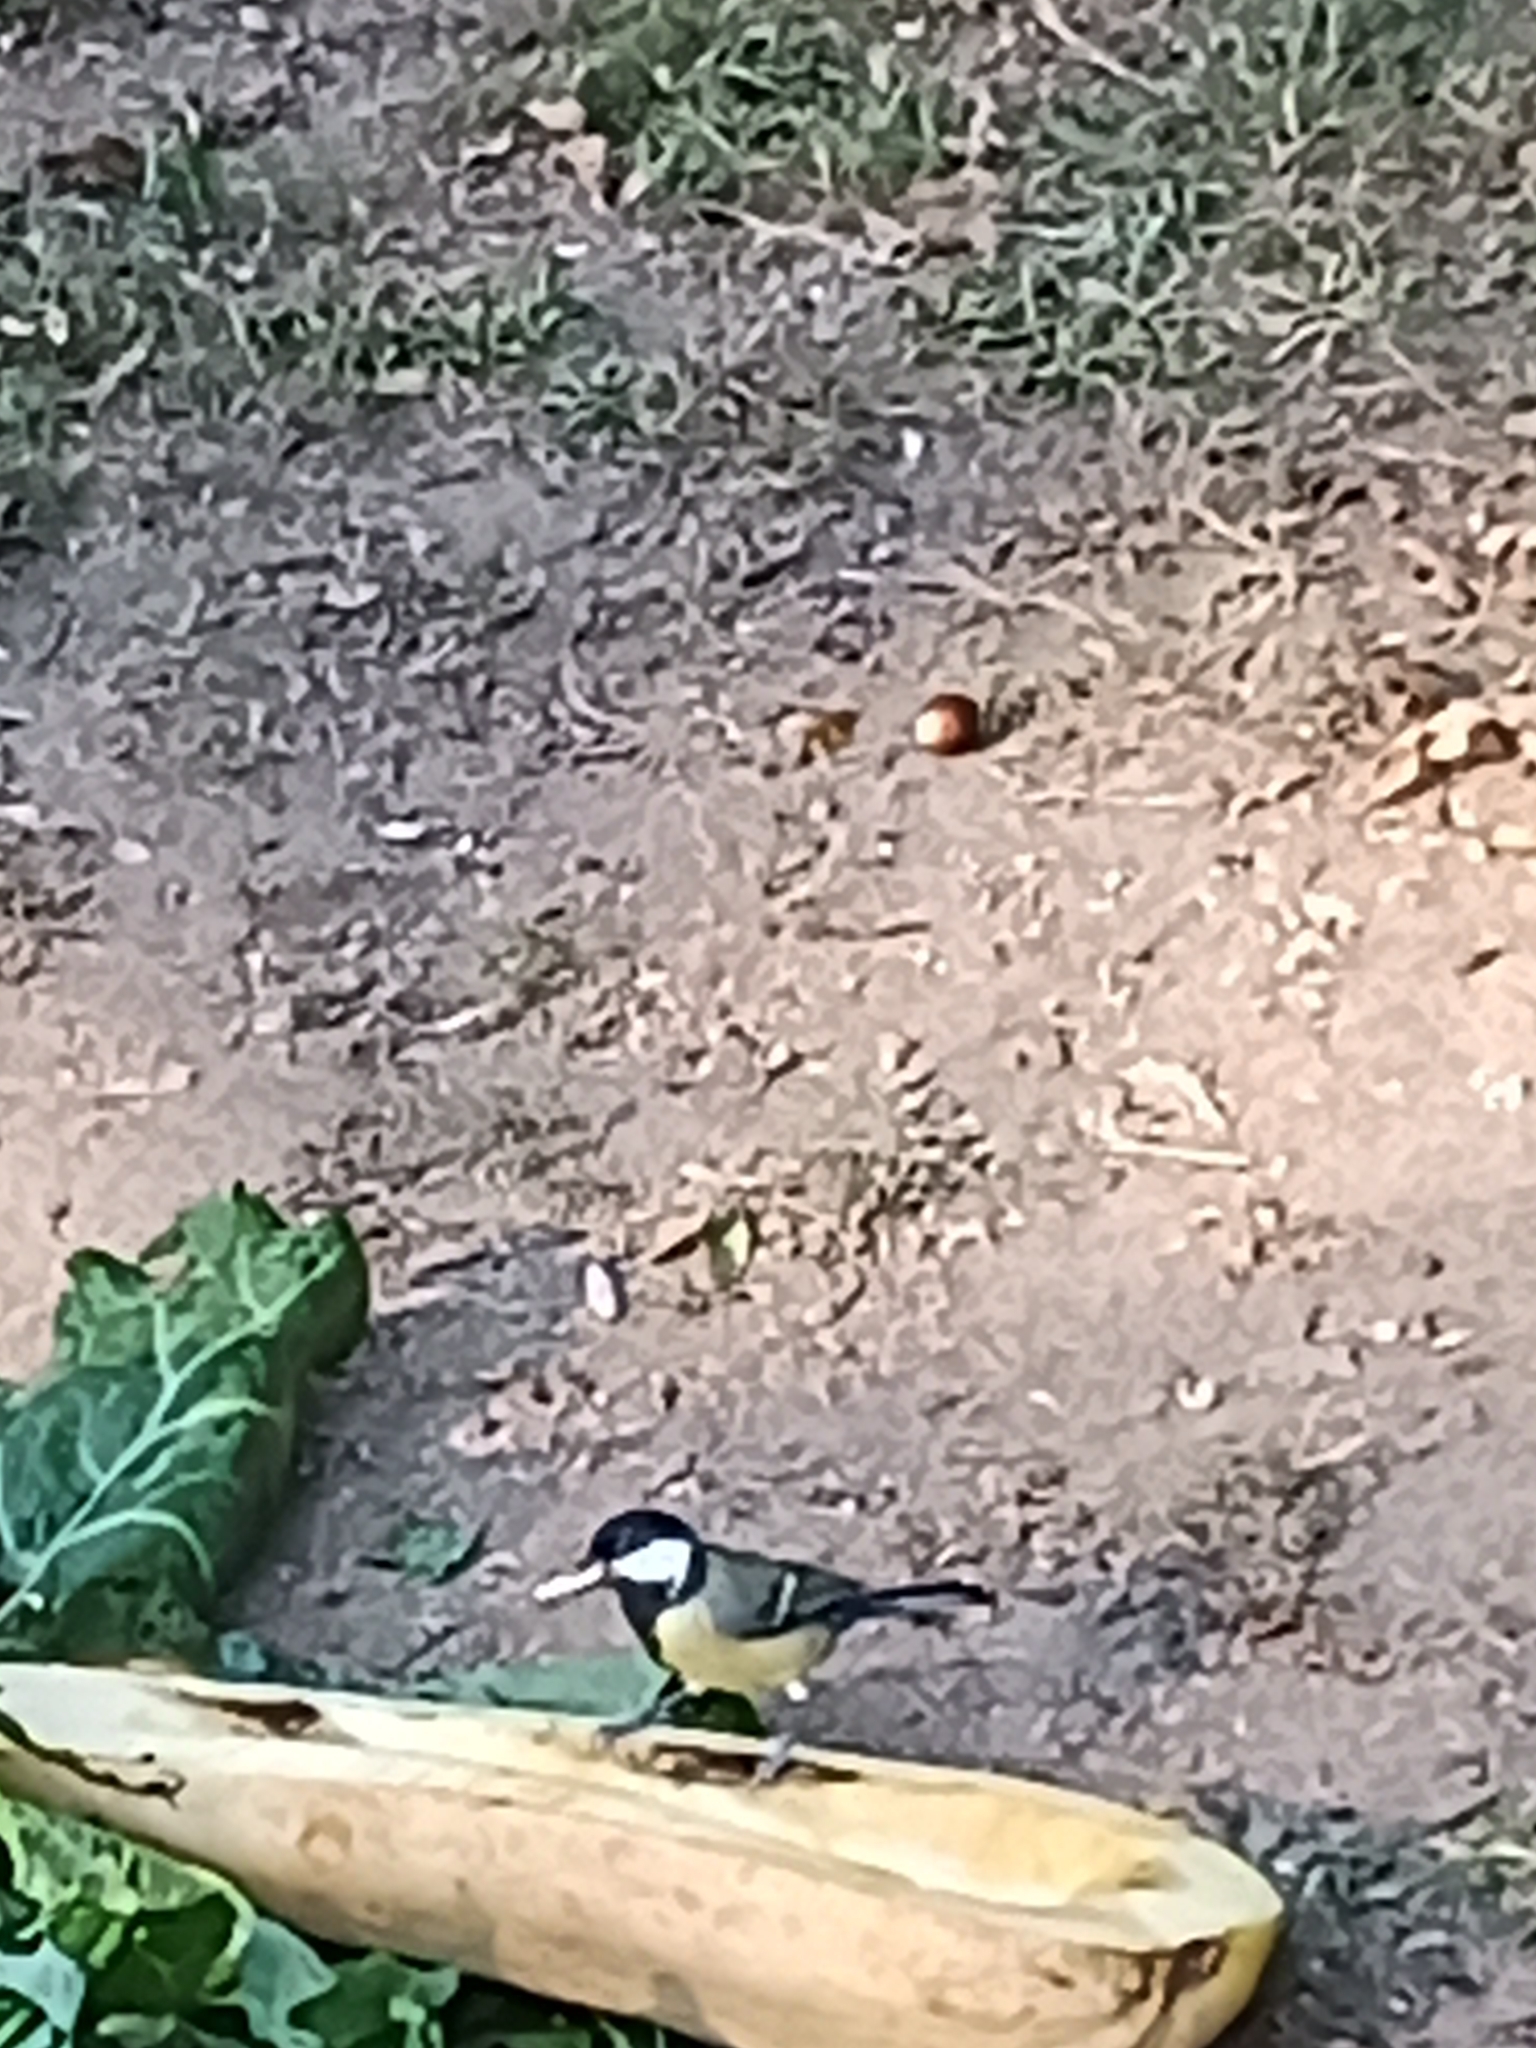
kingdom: Animalia
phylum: Chordata
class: Aves
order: Passeriformes
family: Paridae
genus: Parus
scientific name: Parus major
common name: Great tit
